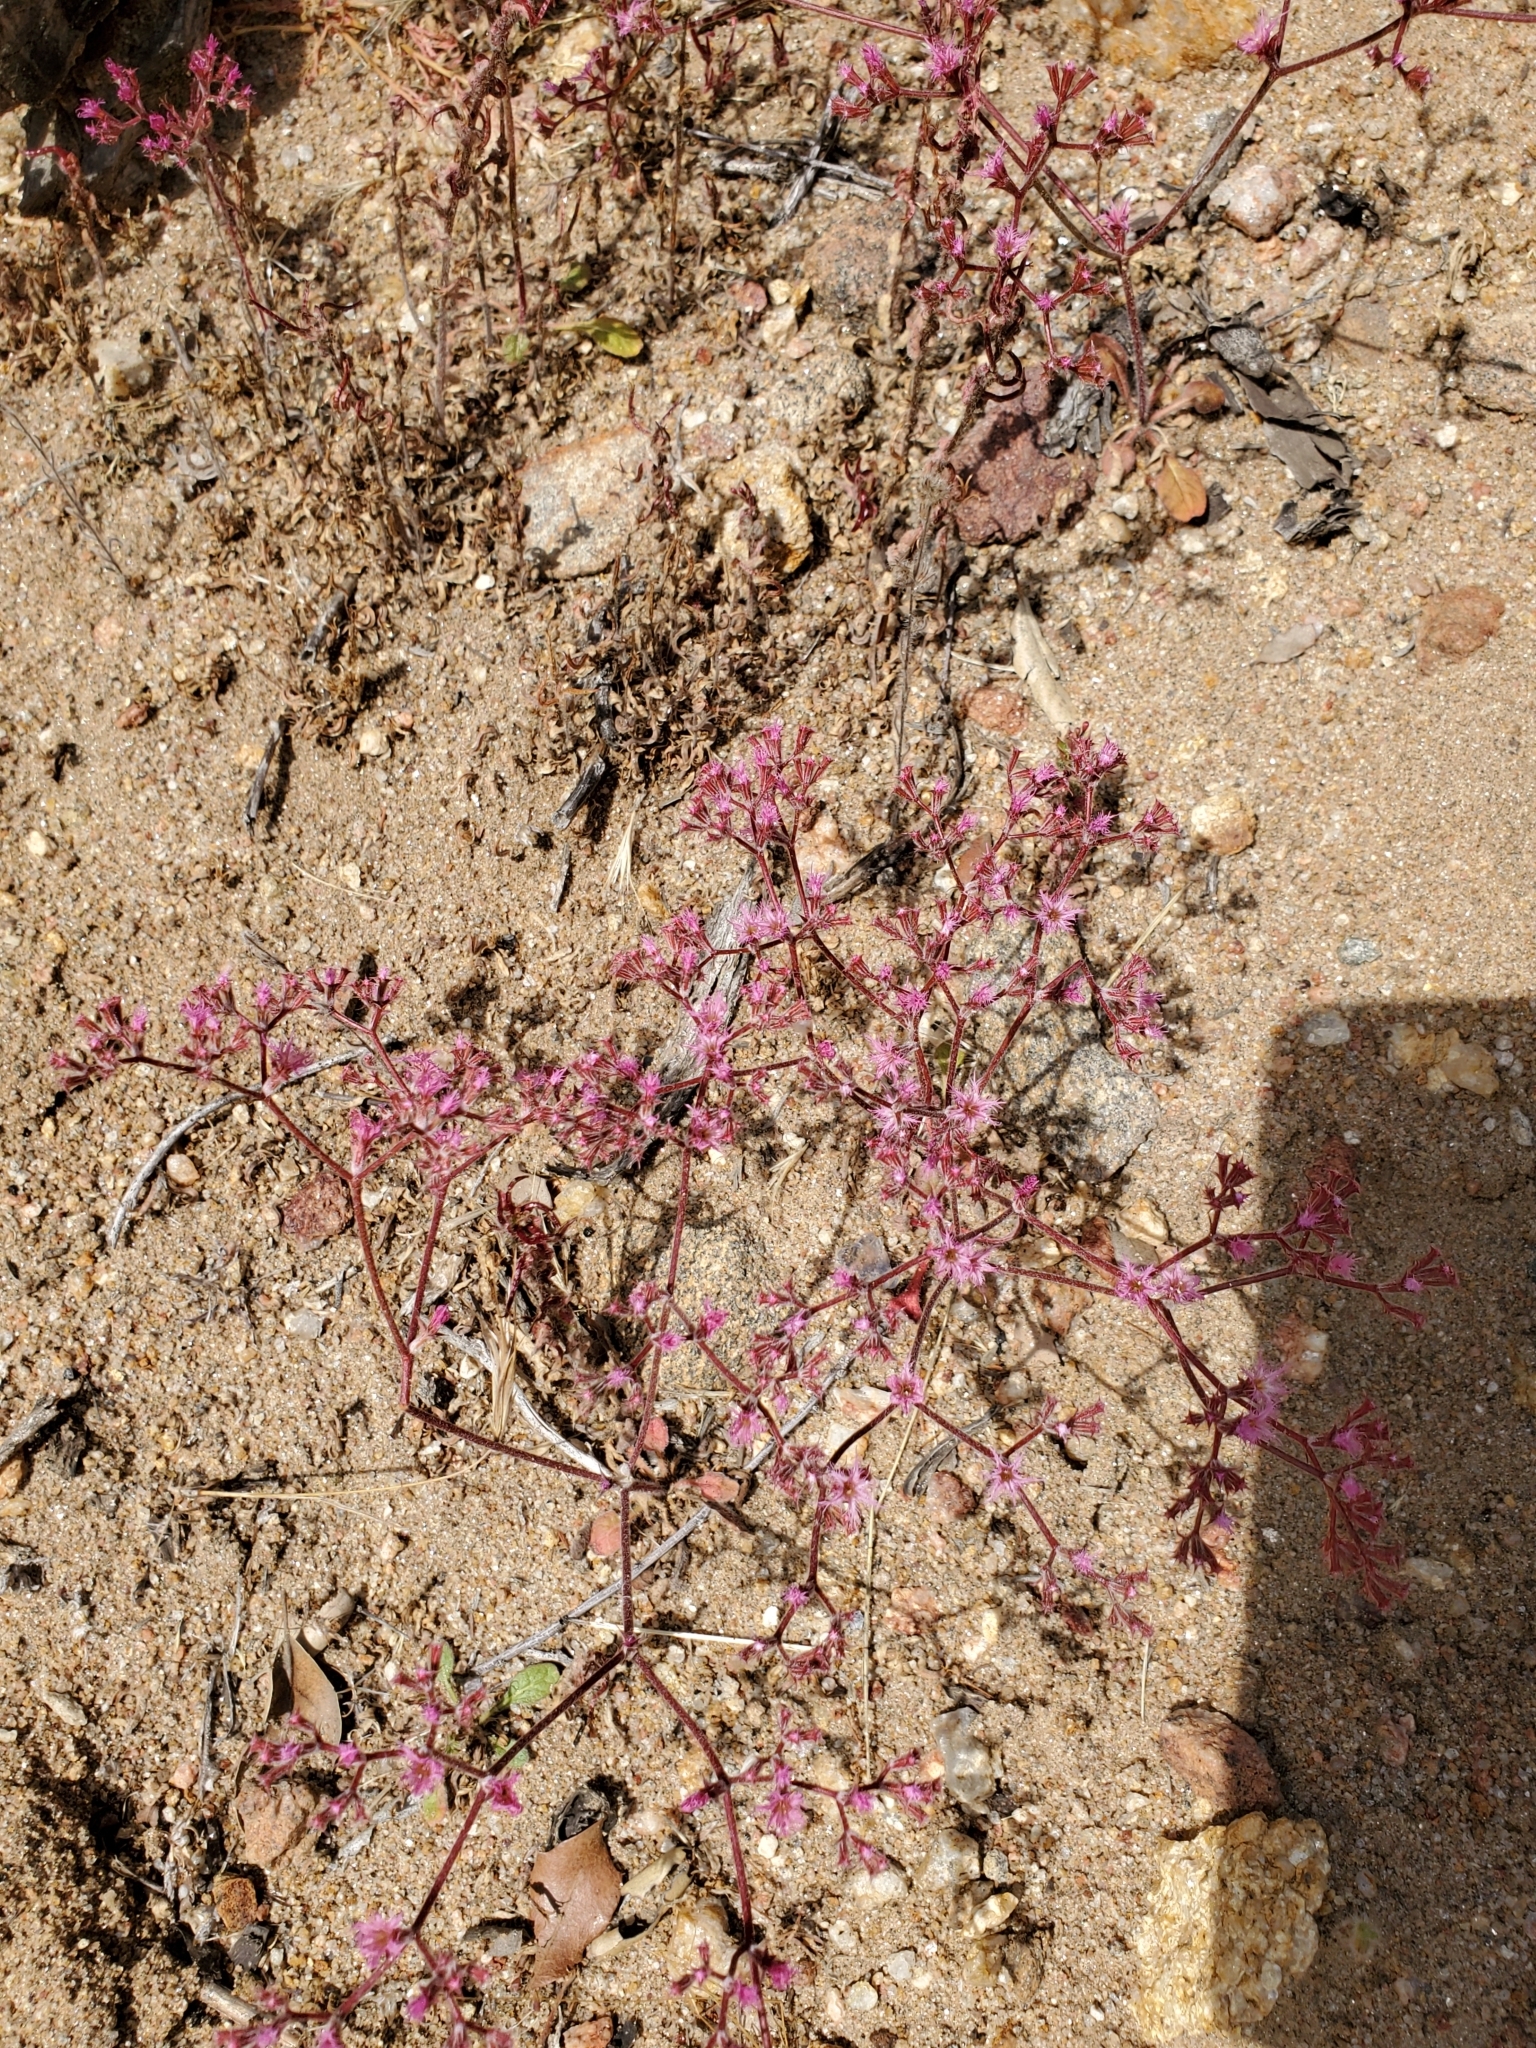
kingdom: Plantae
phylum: Tracheophyta
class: Magnoliopsida
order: Caryophyllales
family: Polygonaceae
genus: Chorizanthe
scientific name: Chorizanthe fimbriata
